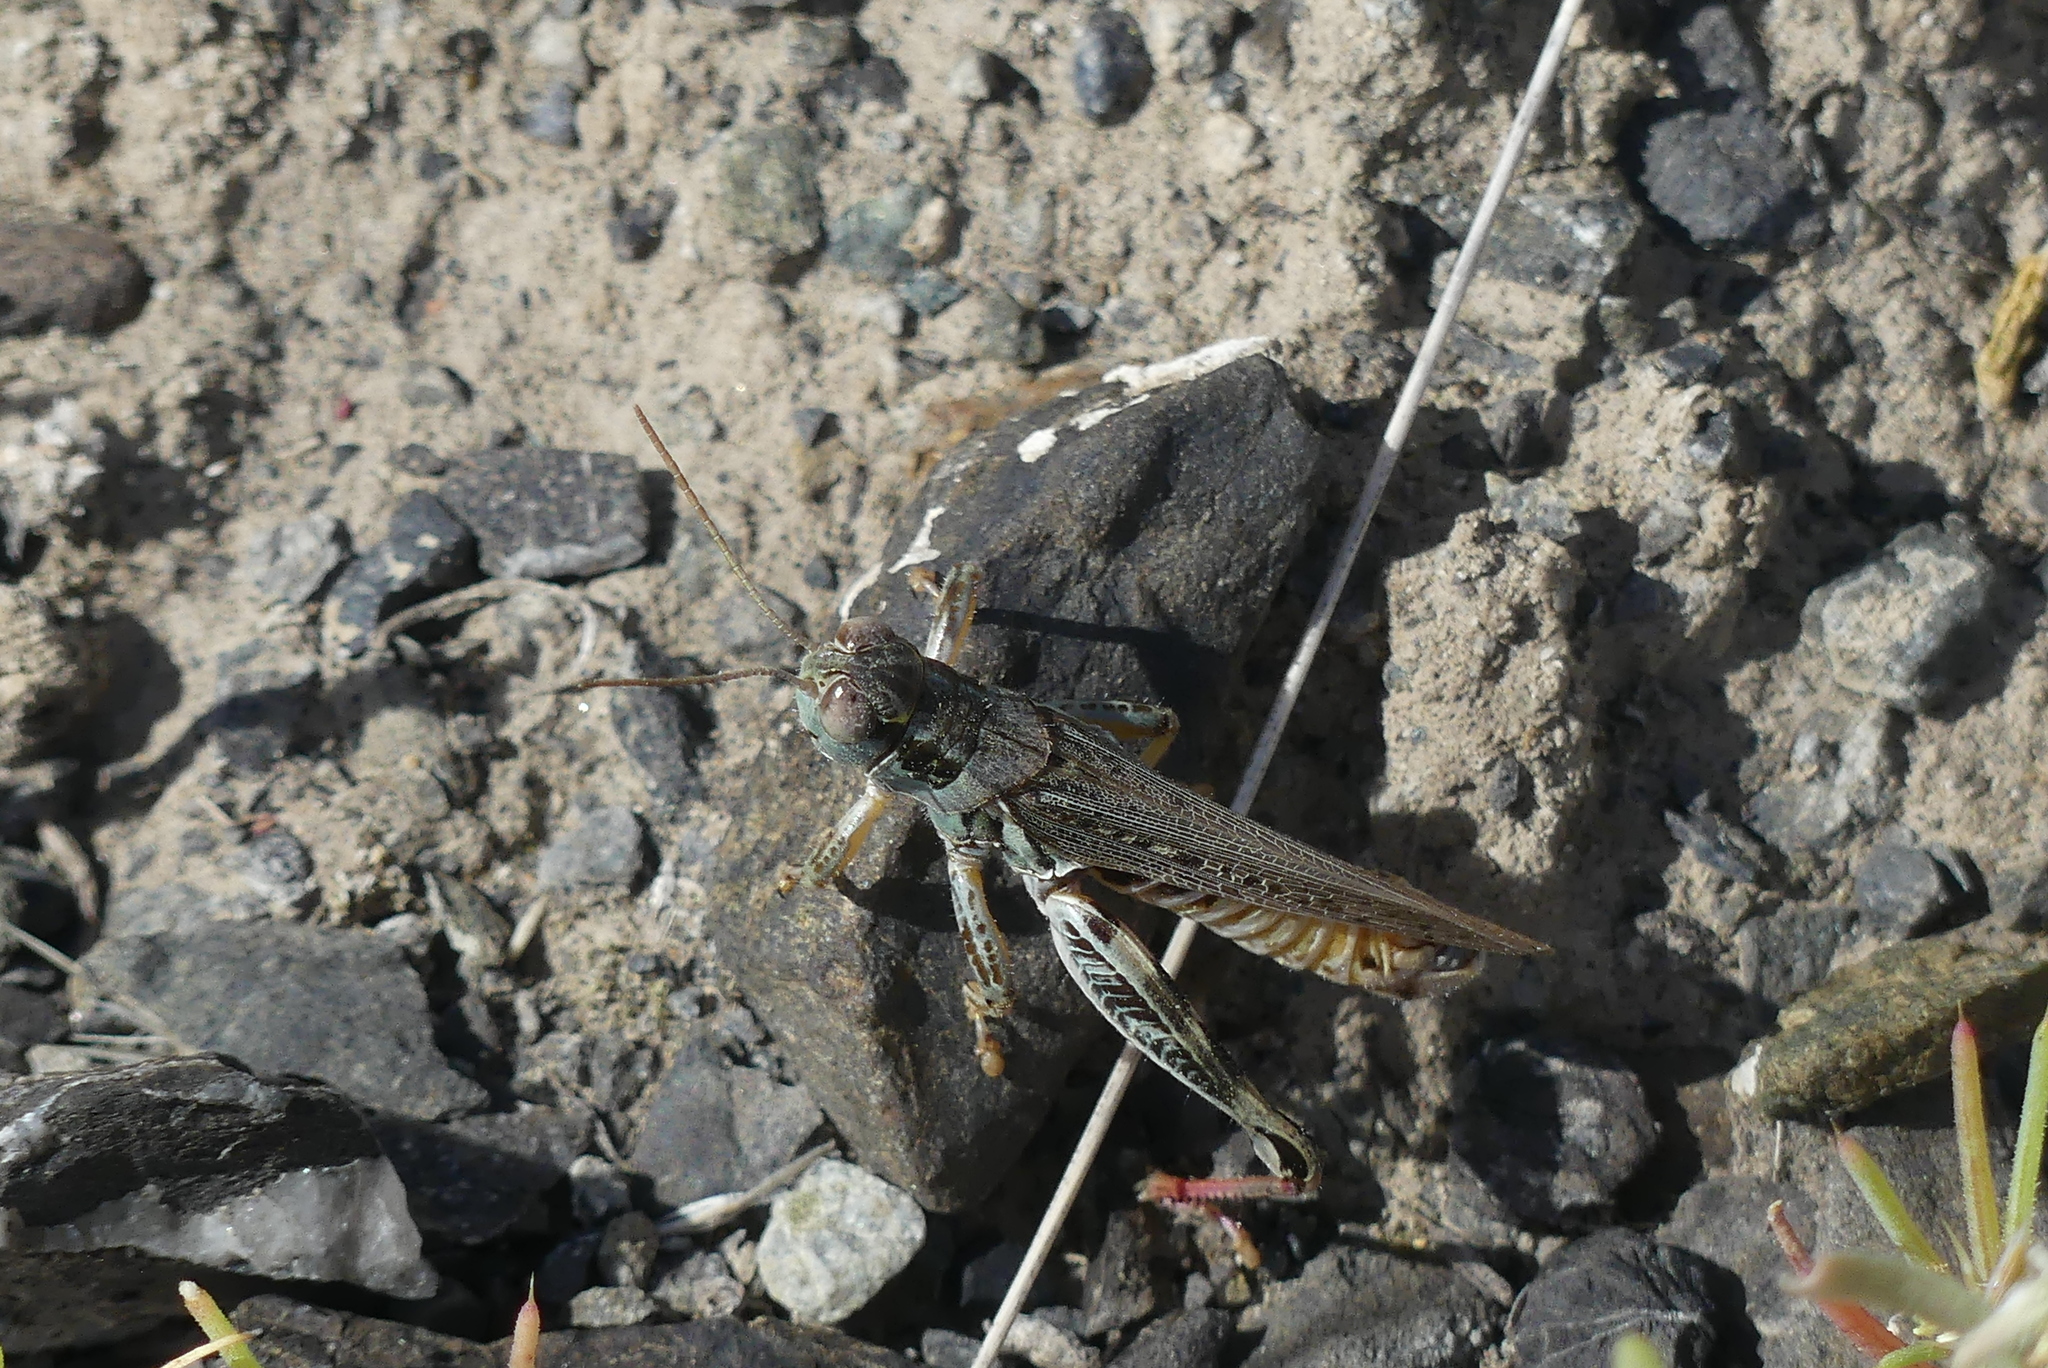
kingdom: Animalia
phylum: Arthropoda
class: Insecta
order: Orthoptera
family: Acrididae
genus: Melanoplus
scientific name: Melanoplus sanguinipes
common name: Migratory grasshopper
